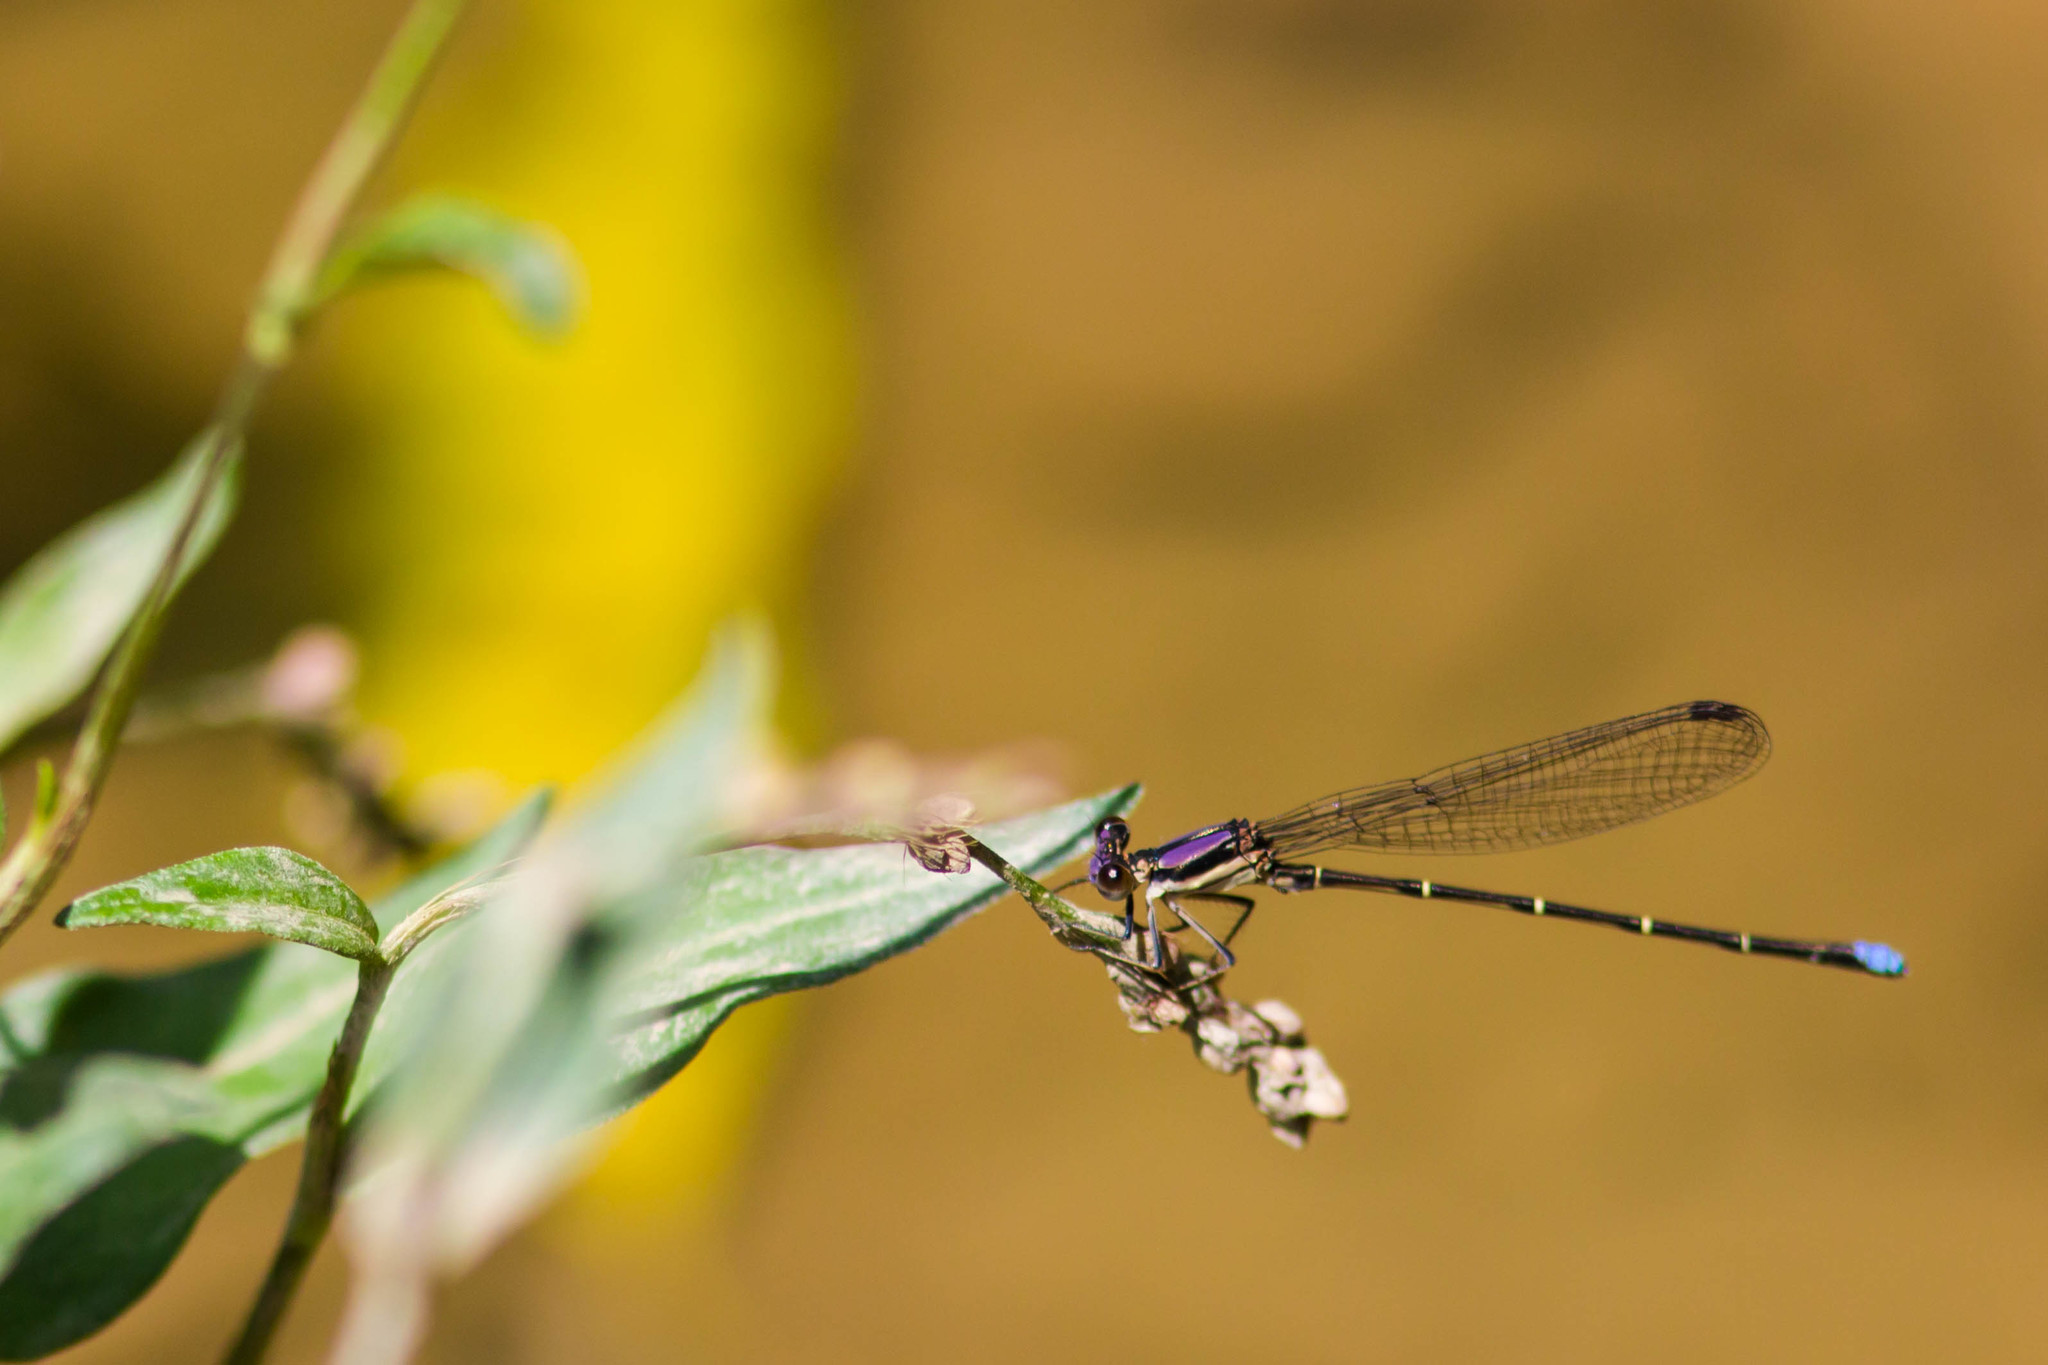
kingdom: Animalia
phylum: Arthropoda
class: Insecta
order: Odonata
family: Coenagrionidae
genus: Argia
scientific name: Argia tibialis
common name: Blue-tipped dancer
